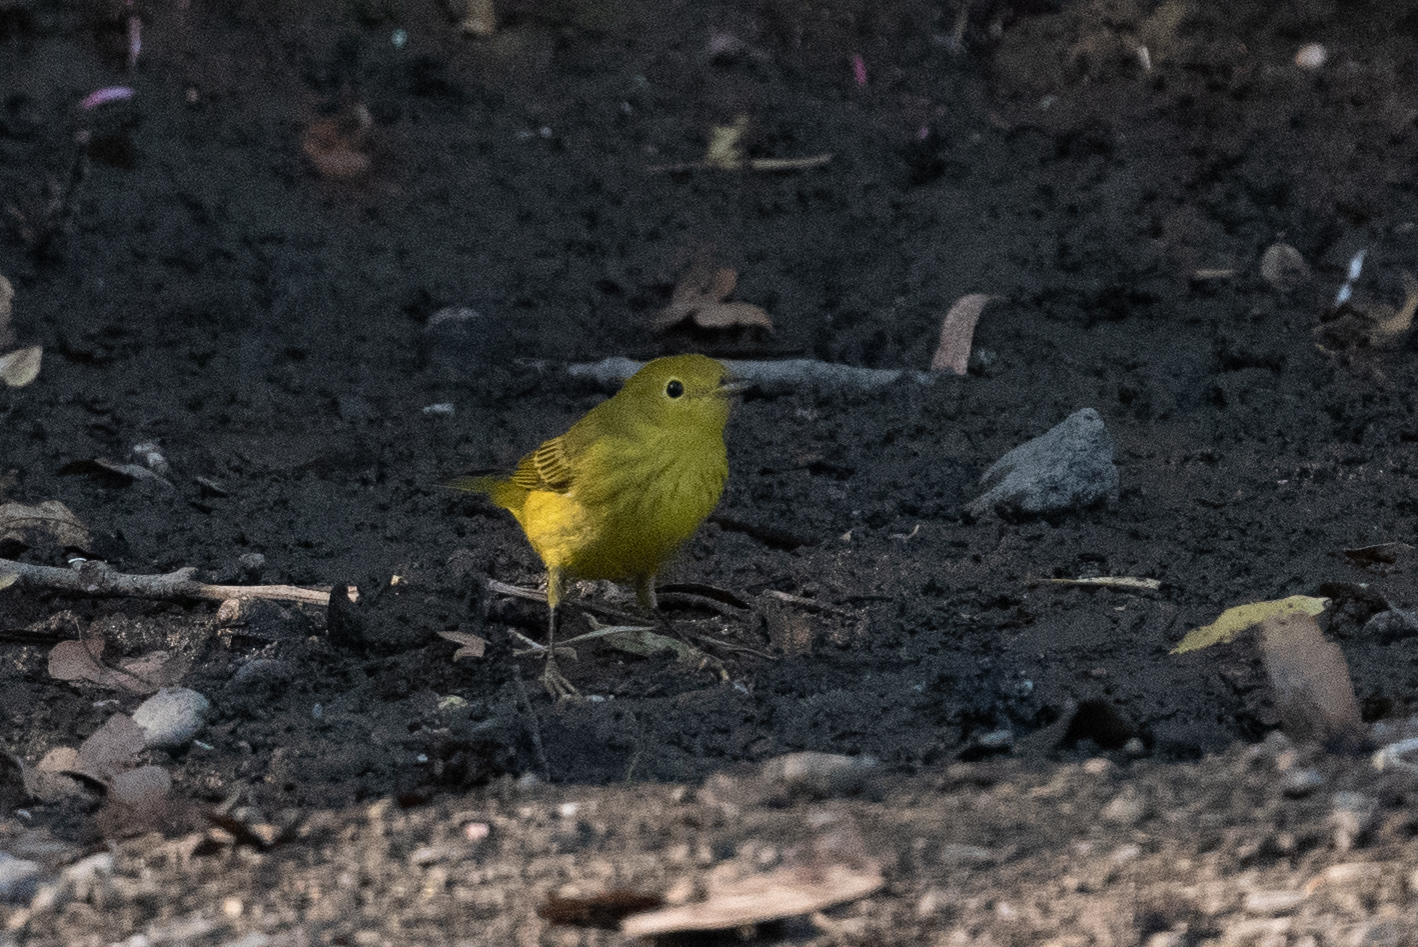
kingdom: Animalia
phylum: Chordata
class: Aves
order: Passeriformes
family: Parulidae
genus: Setophaga
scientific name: Setophaga petechia
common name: Yellow warbler
